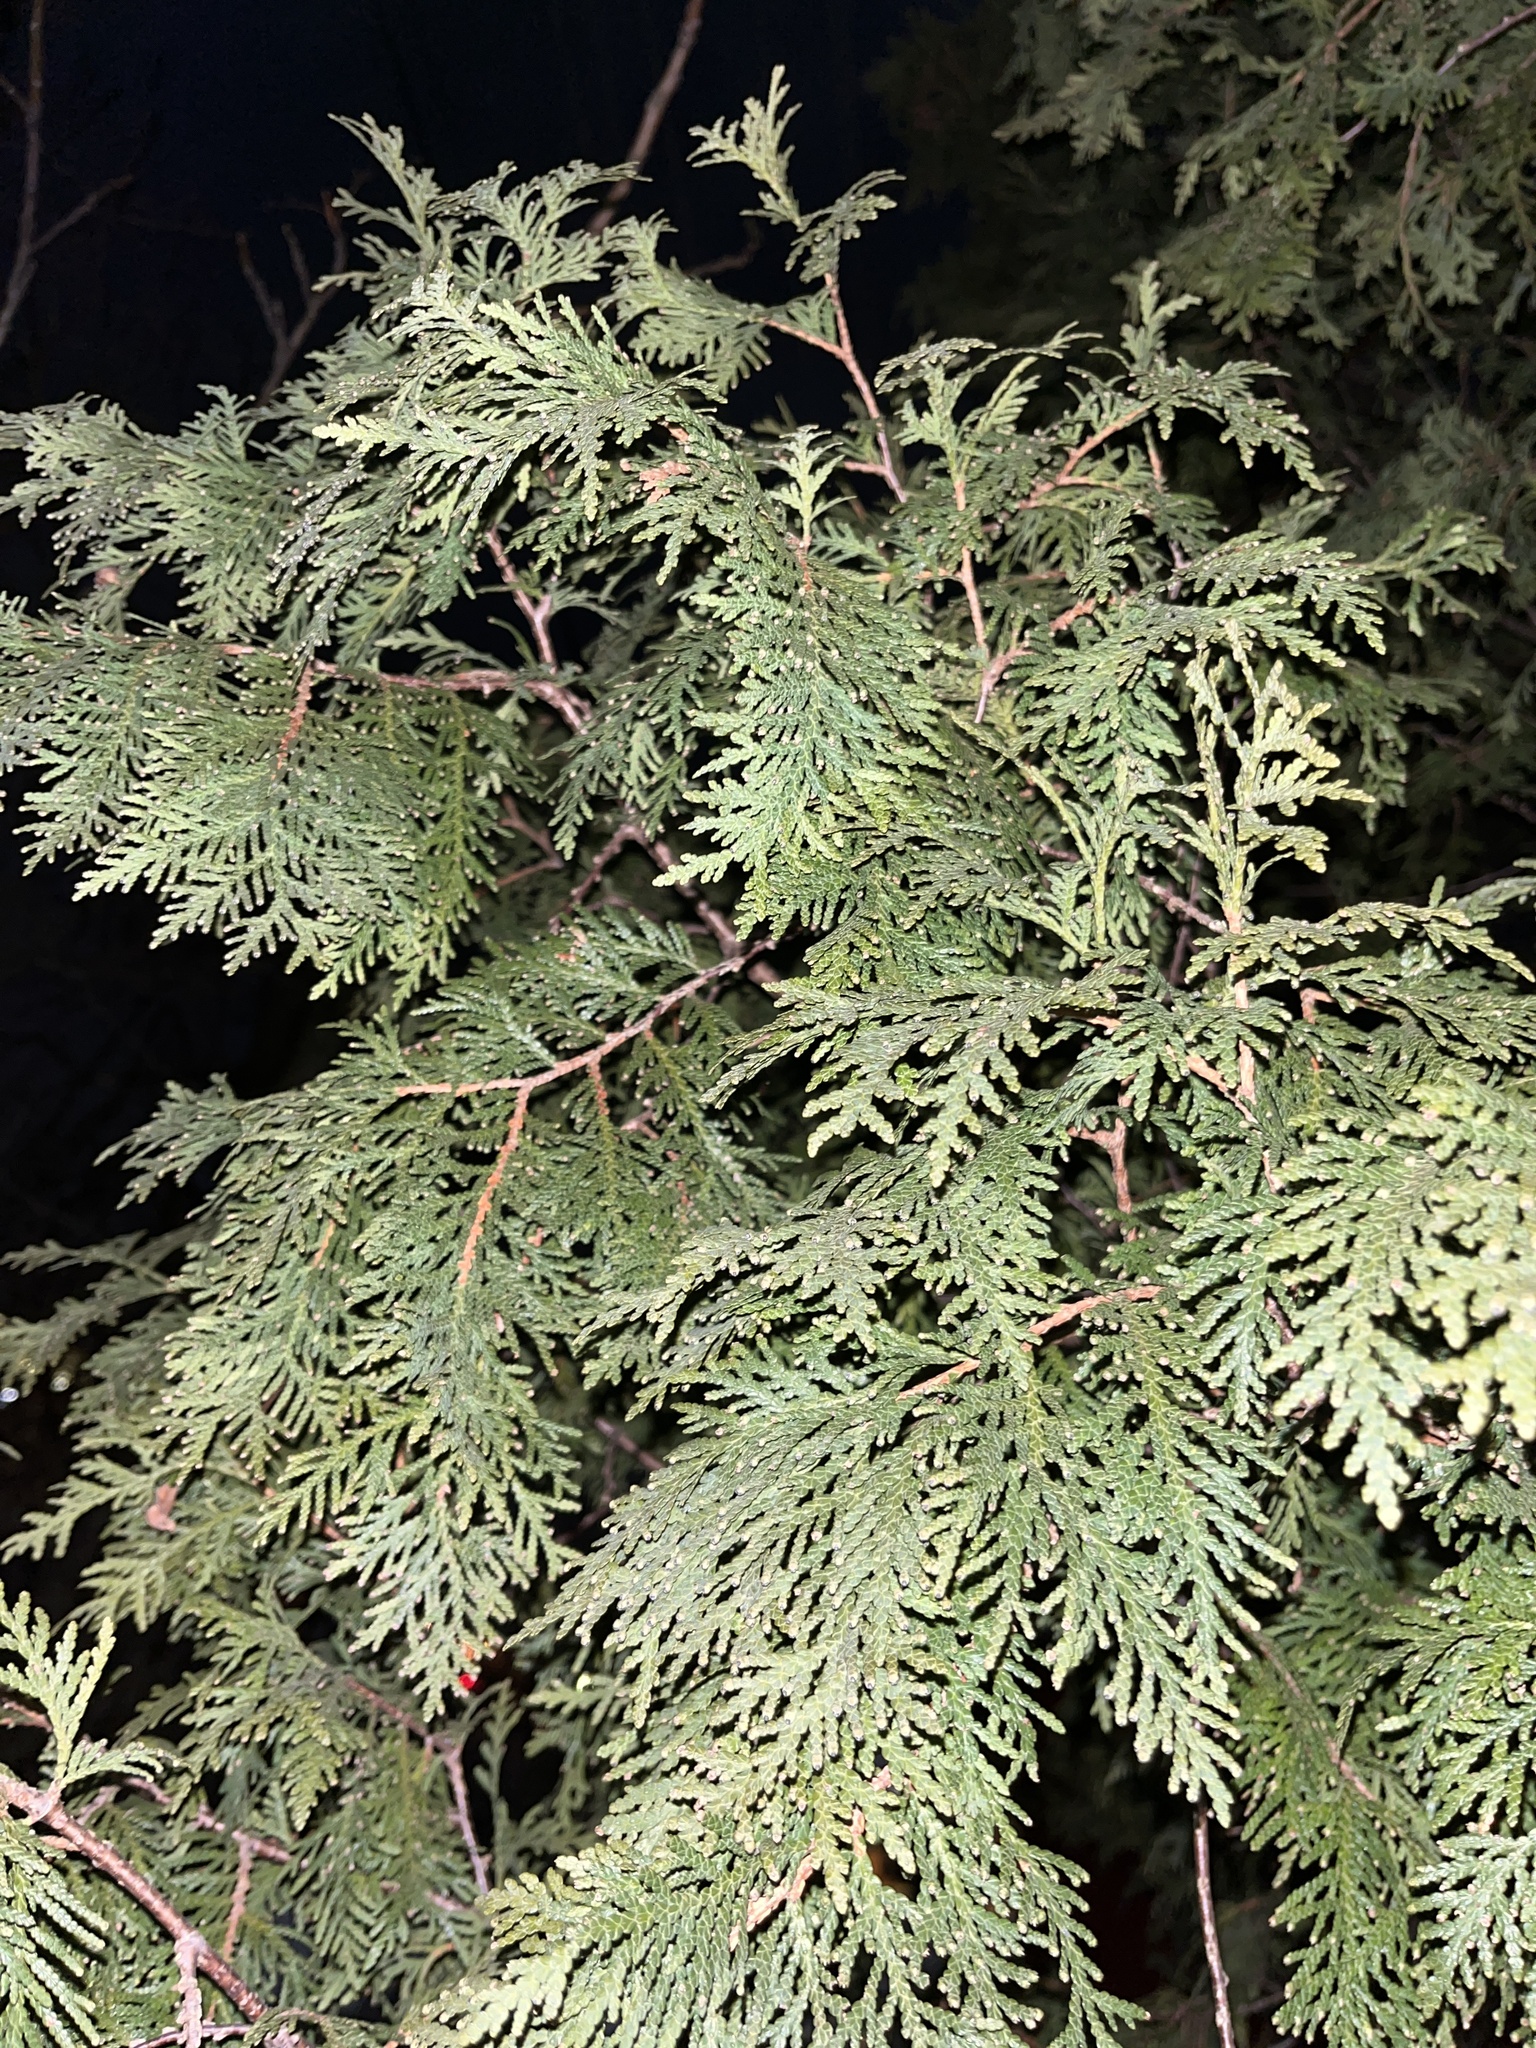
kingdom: Plantae
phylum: Tracheophyta
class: Pinopsida
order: Pinales
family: Cupressaceae
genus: Thuja
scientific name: Thuja occidentalis
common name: Northern white-cedar
